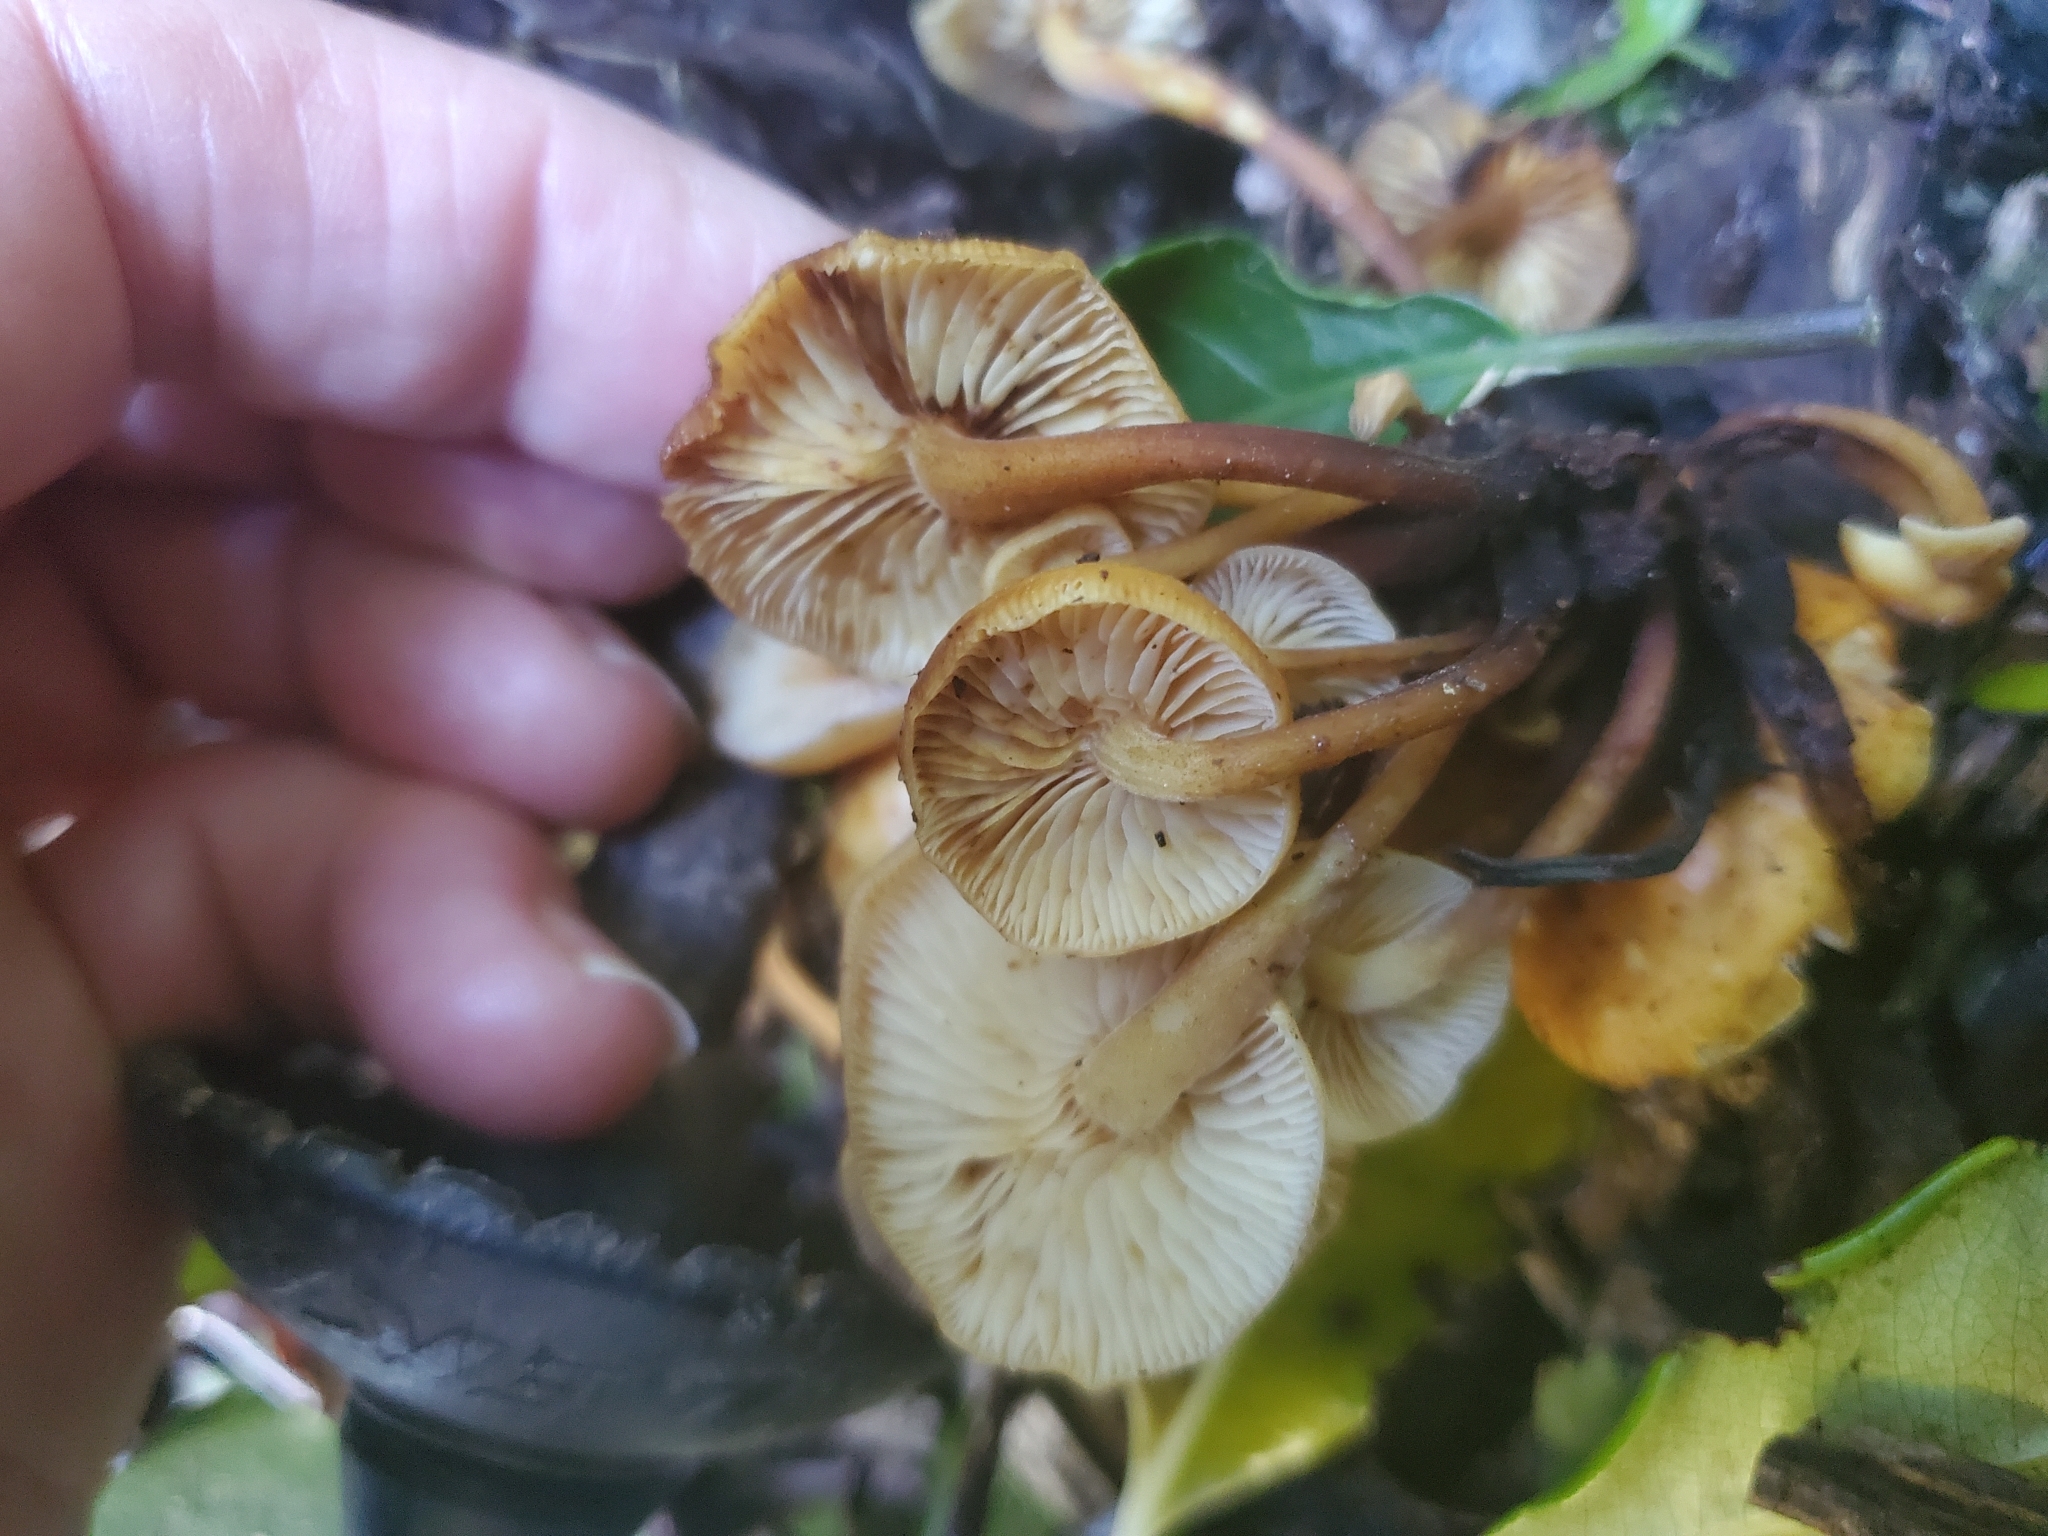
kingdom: Fungi
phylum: Basidiomycota
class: Agaricomycetes
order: Agaricales
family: Physalacriaceae
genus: Flammulina
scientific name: Flammulina velutipes
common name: Velvet shank
